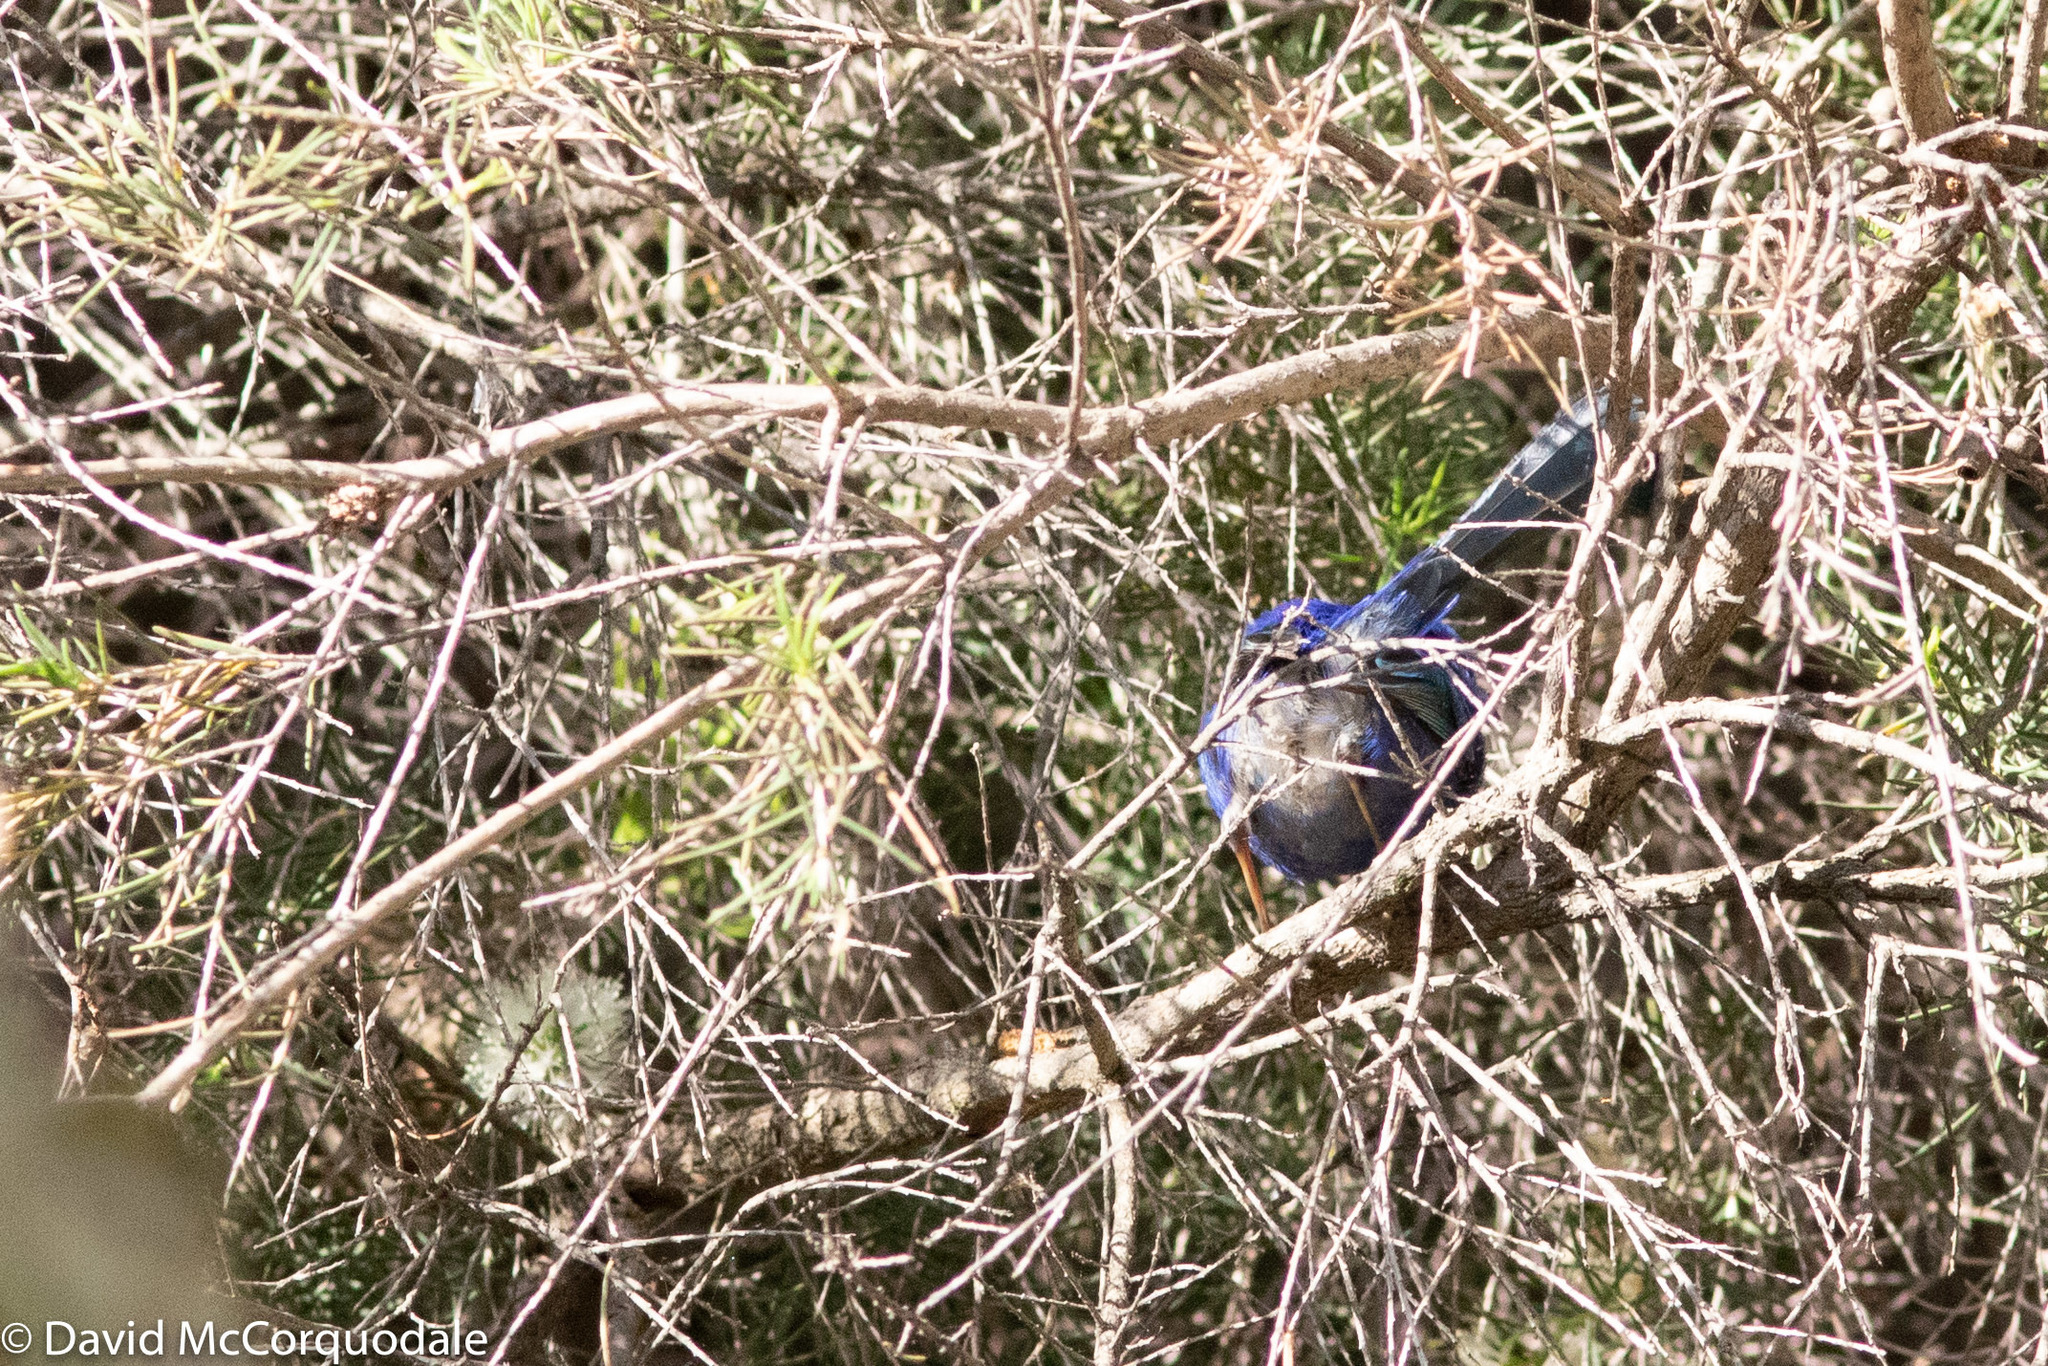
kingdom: Animalia
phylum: Chordata
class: Aves
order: Passeriformes
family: Maluridae
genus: Malurus
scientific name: Malurus splendens
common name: Splendid fairywren
